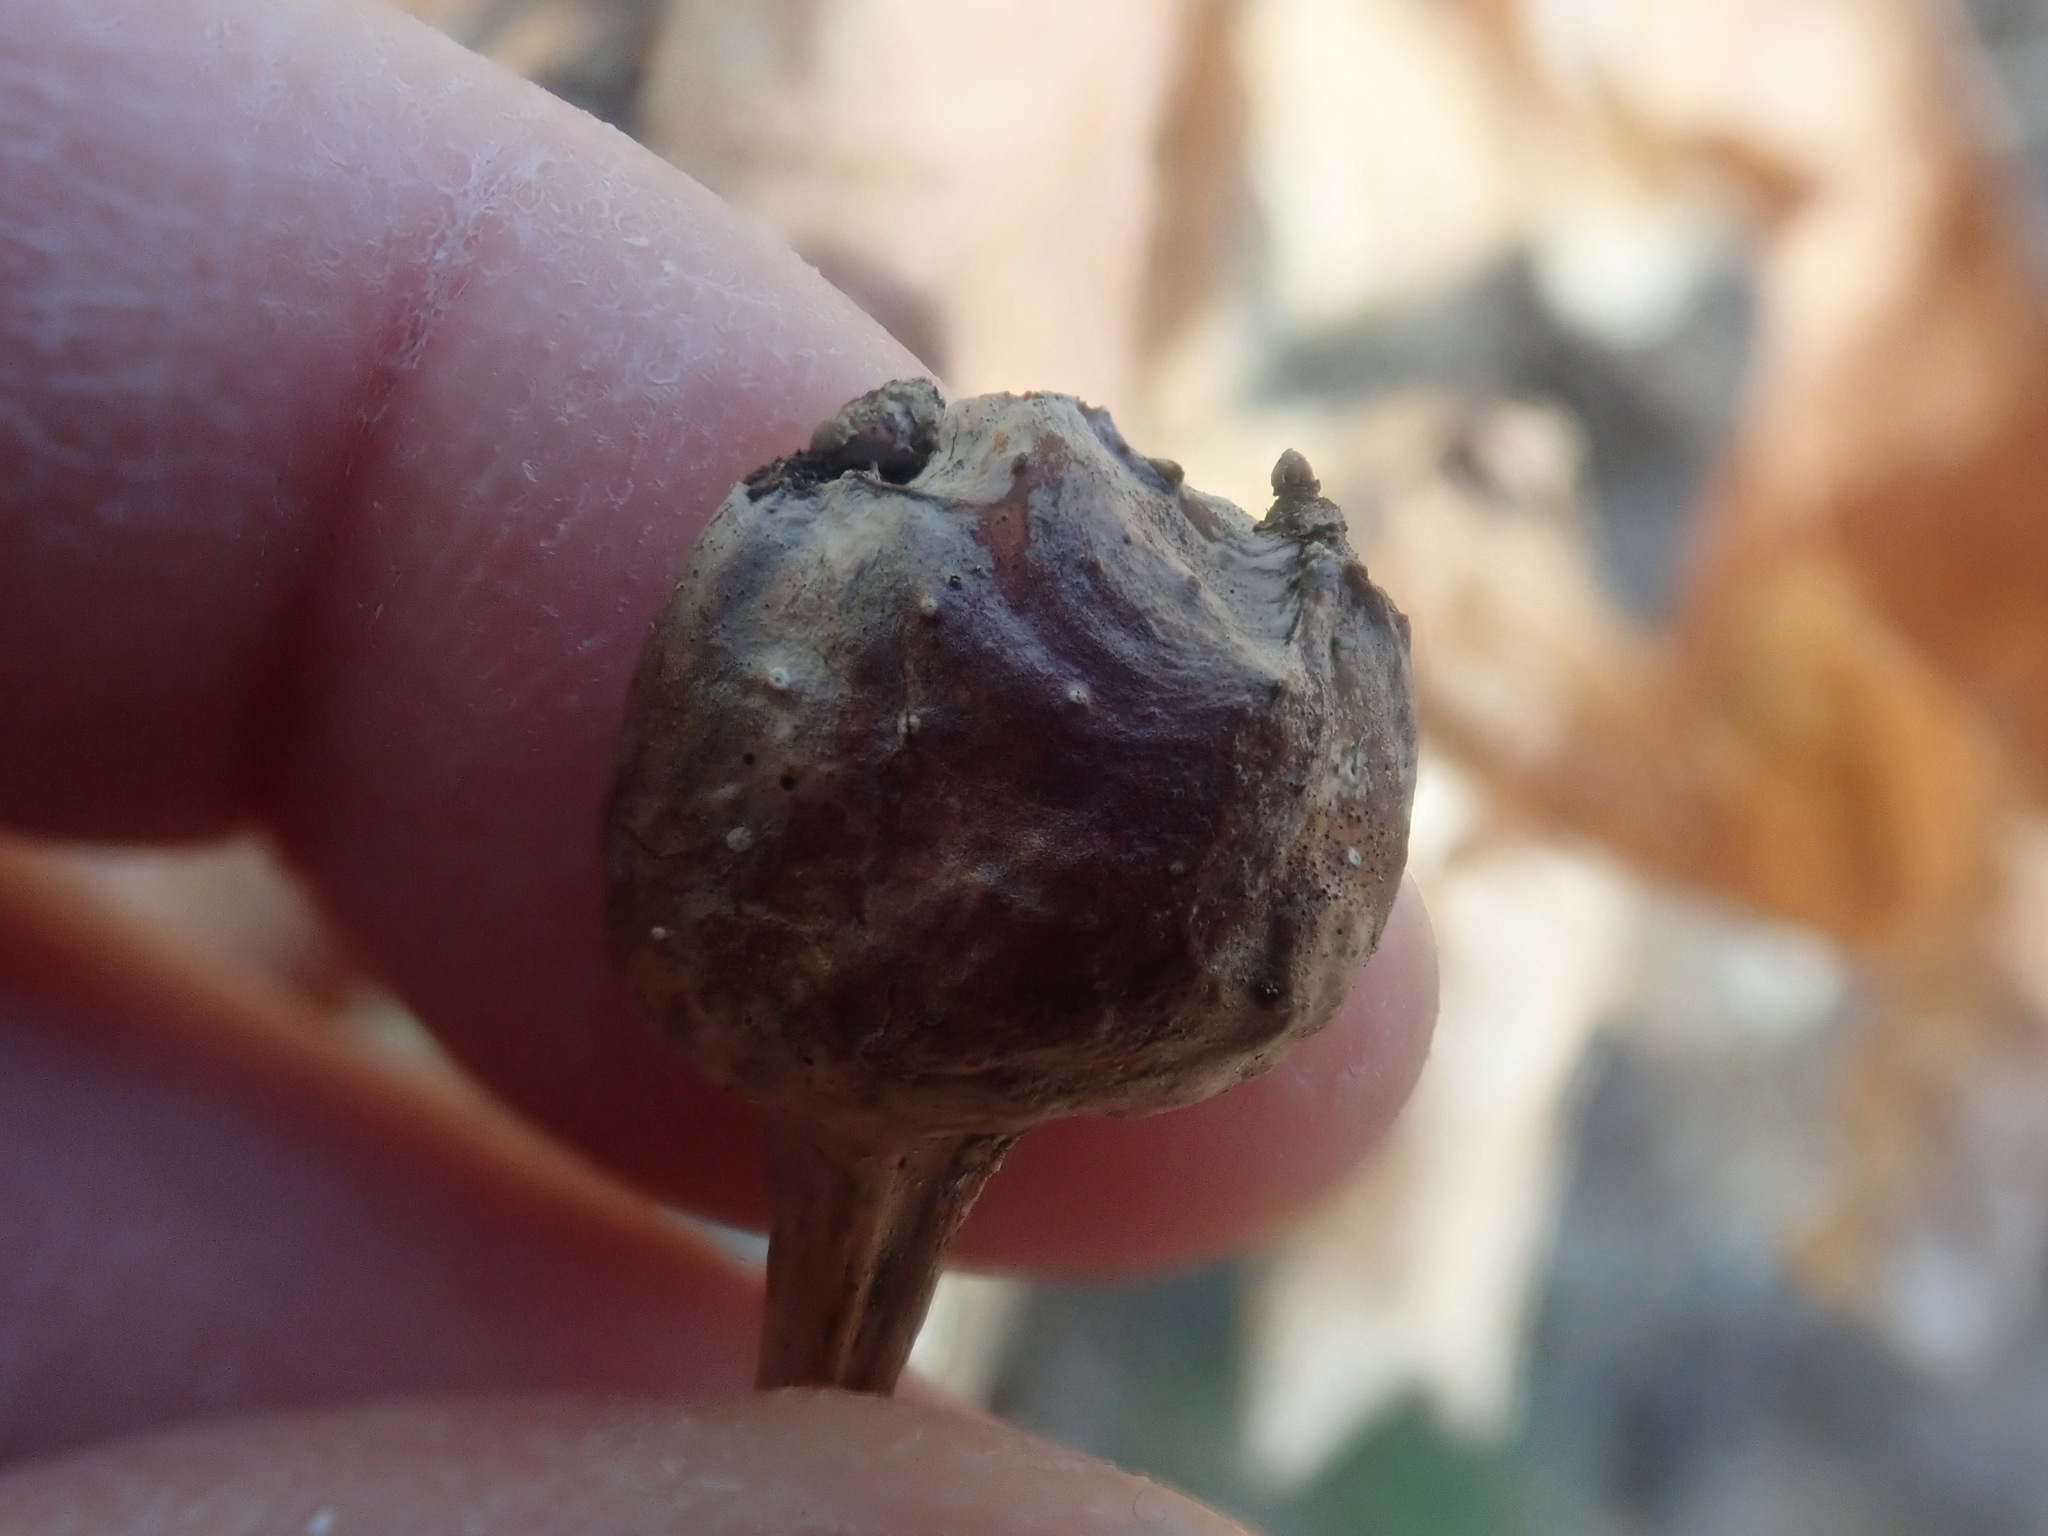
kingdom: Animalia
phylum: Arthropoda
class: Insecta
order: Hymenoptera
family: Cynipidae
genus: Callirhytis
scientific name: Callirhytis clavula
